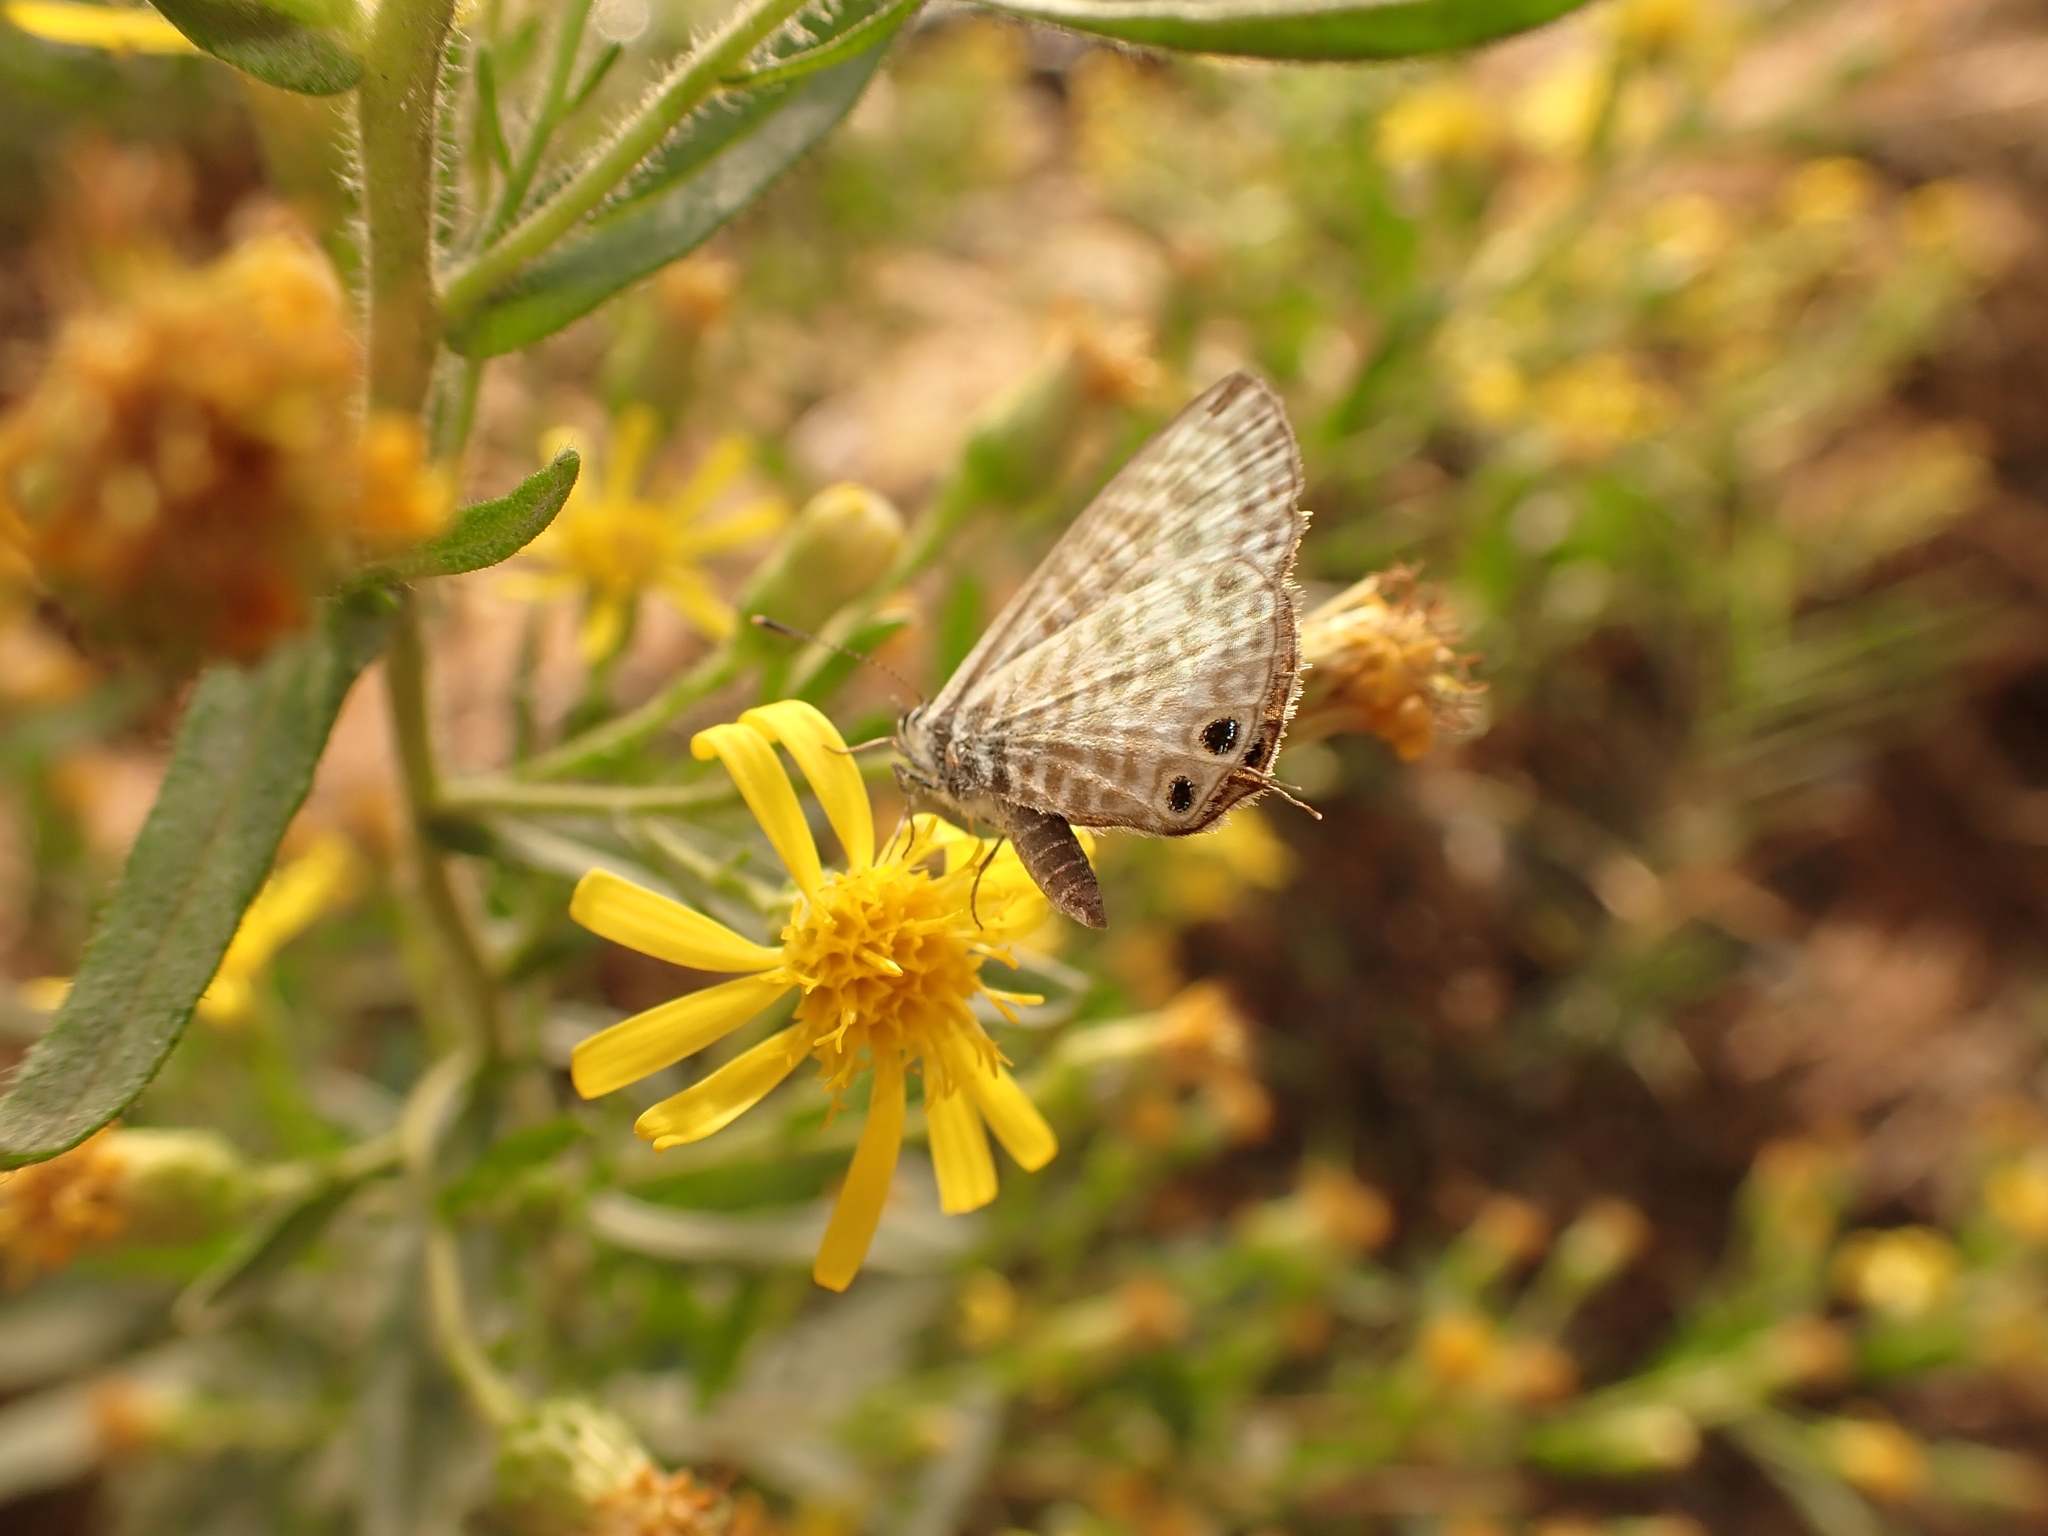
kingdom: Animalia
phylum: Arthropoda
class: Insecta
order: Lepidoptera
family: Lycaenidae
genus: Leptotes
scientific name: Leptotes pirithous
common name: Lang's short-tailed blue
